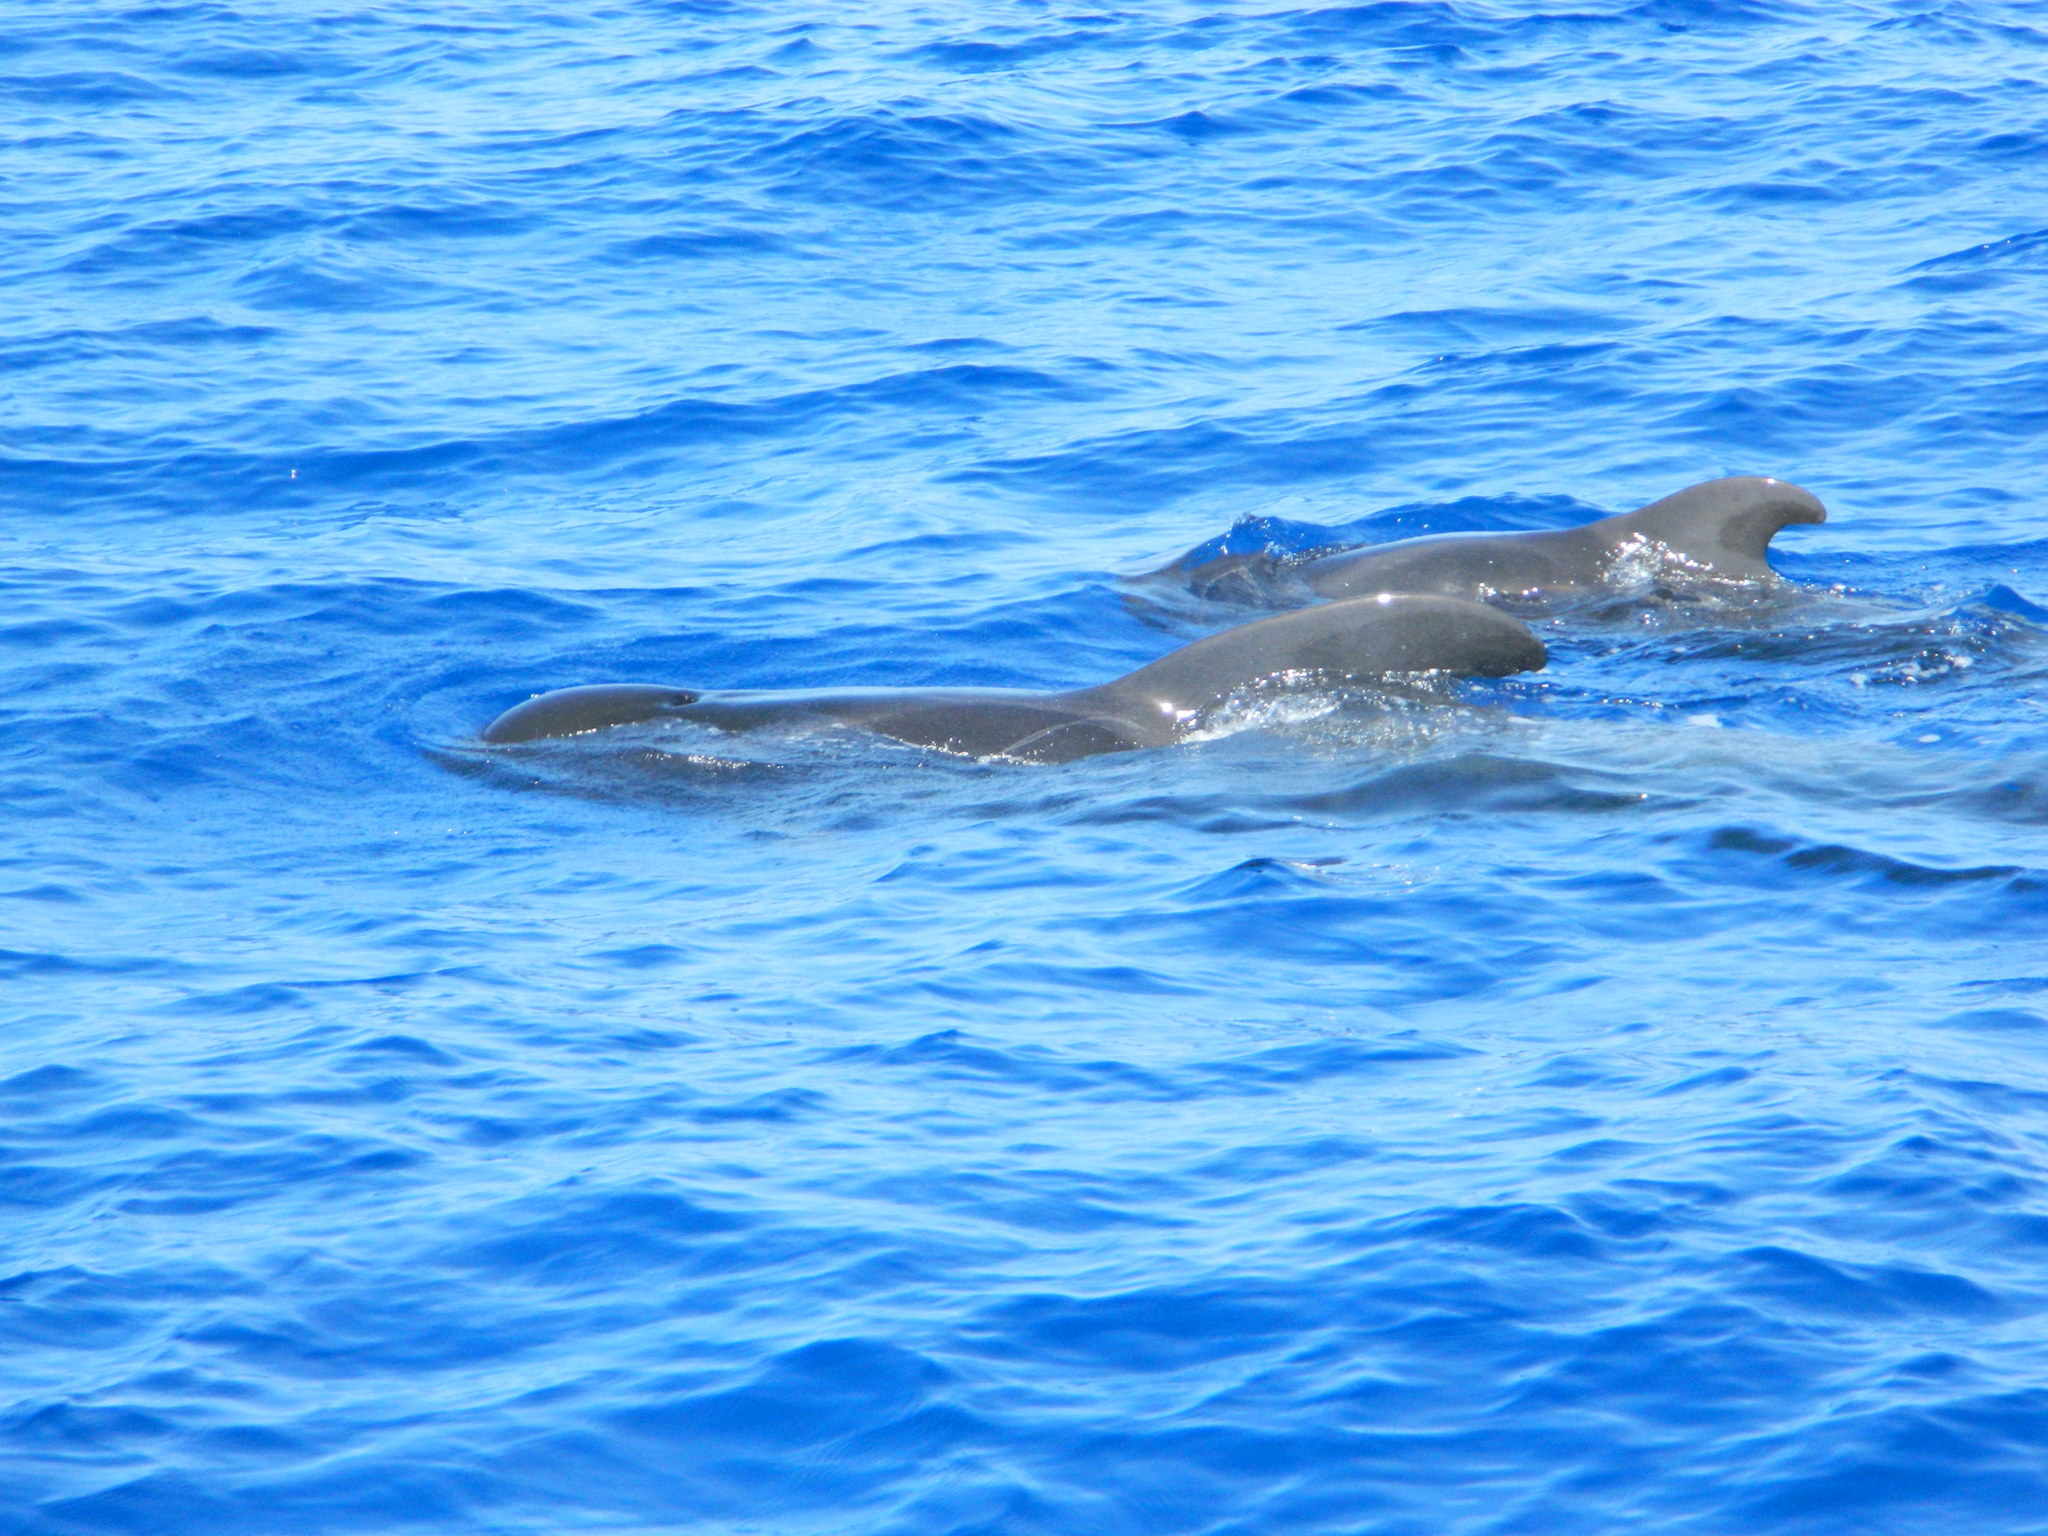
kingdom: Animalia
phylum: Chordata
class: Mammalia
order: Cetacea
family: Delphinidae
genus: Globicephala
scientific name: Globicephala macrorhynchus
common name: Short-finned pilot whale
